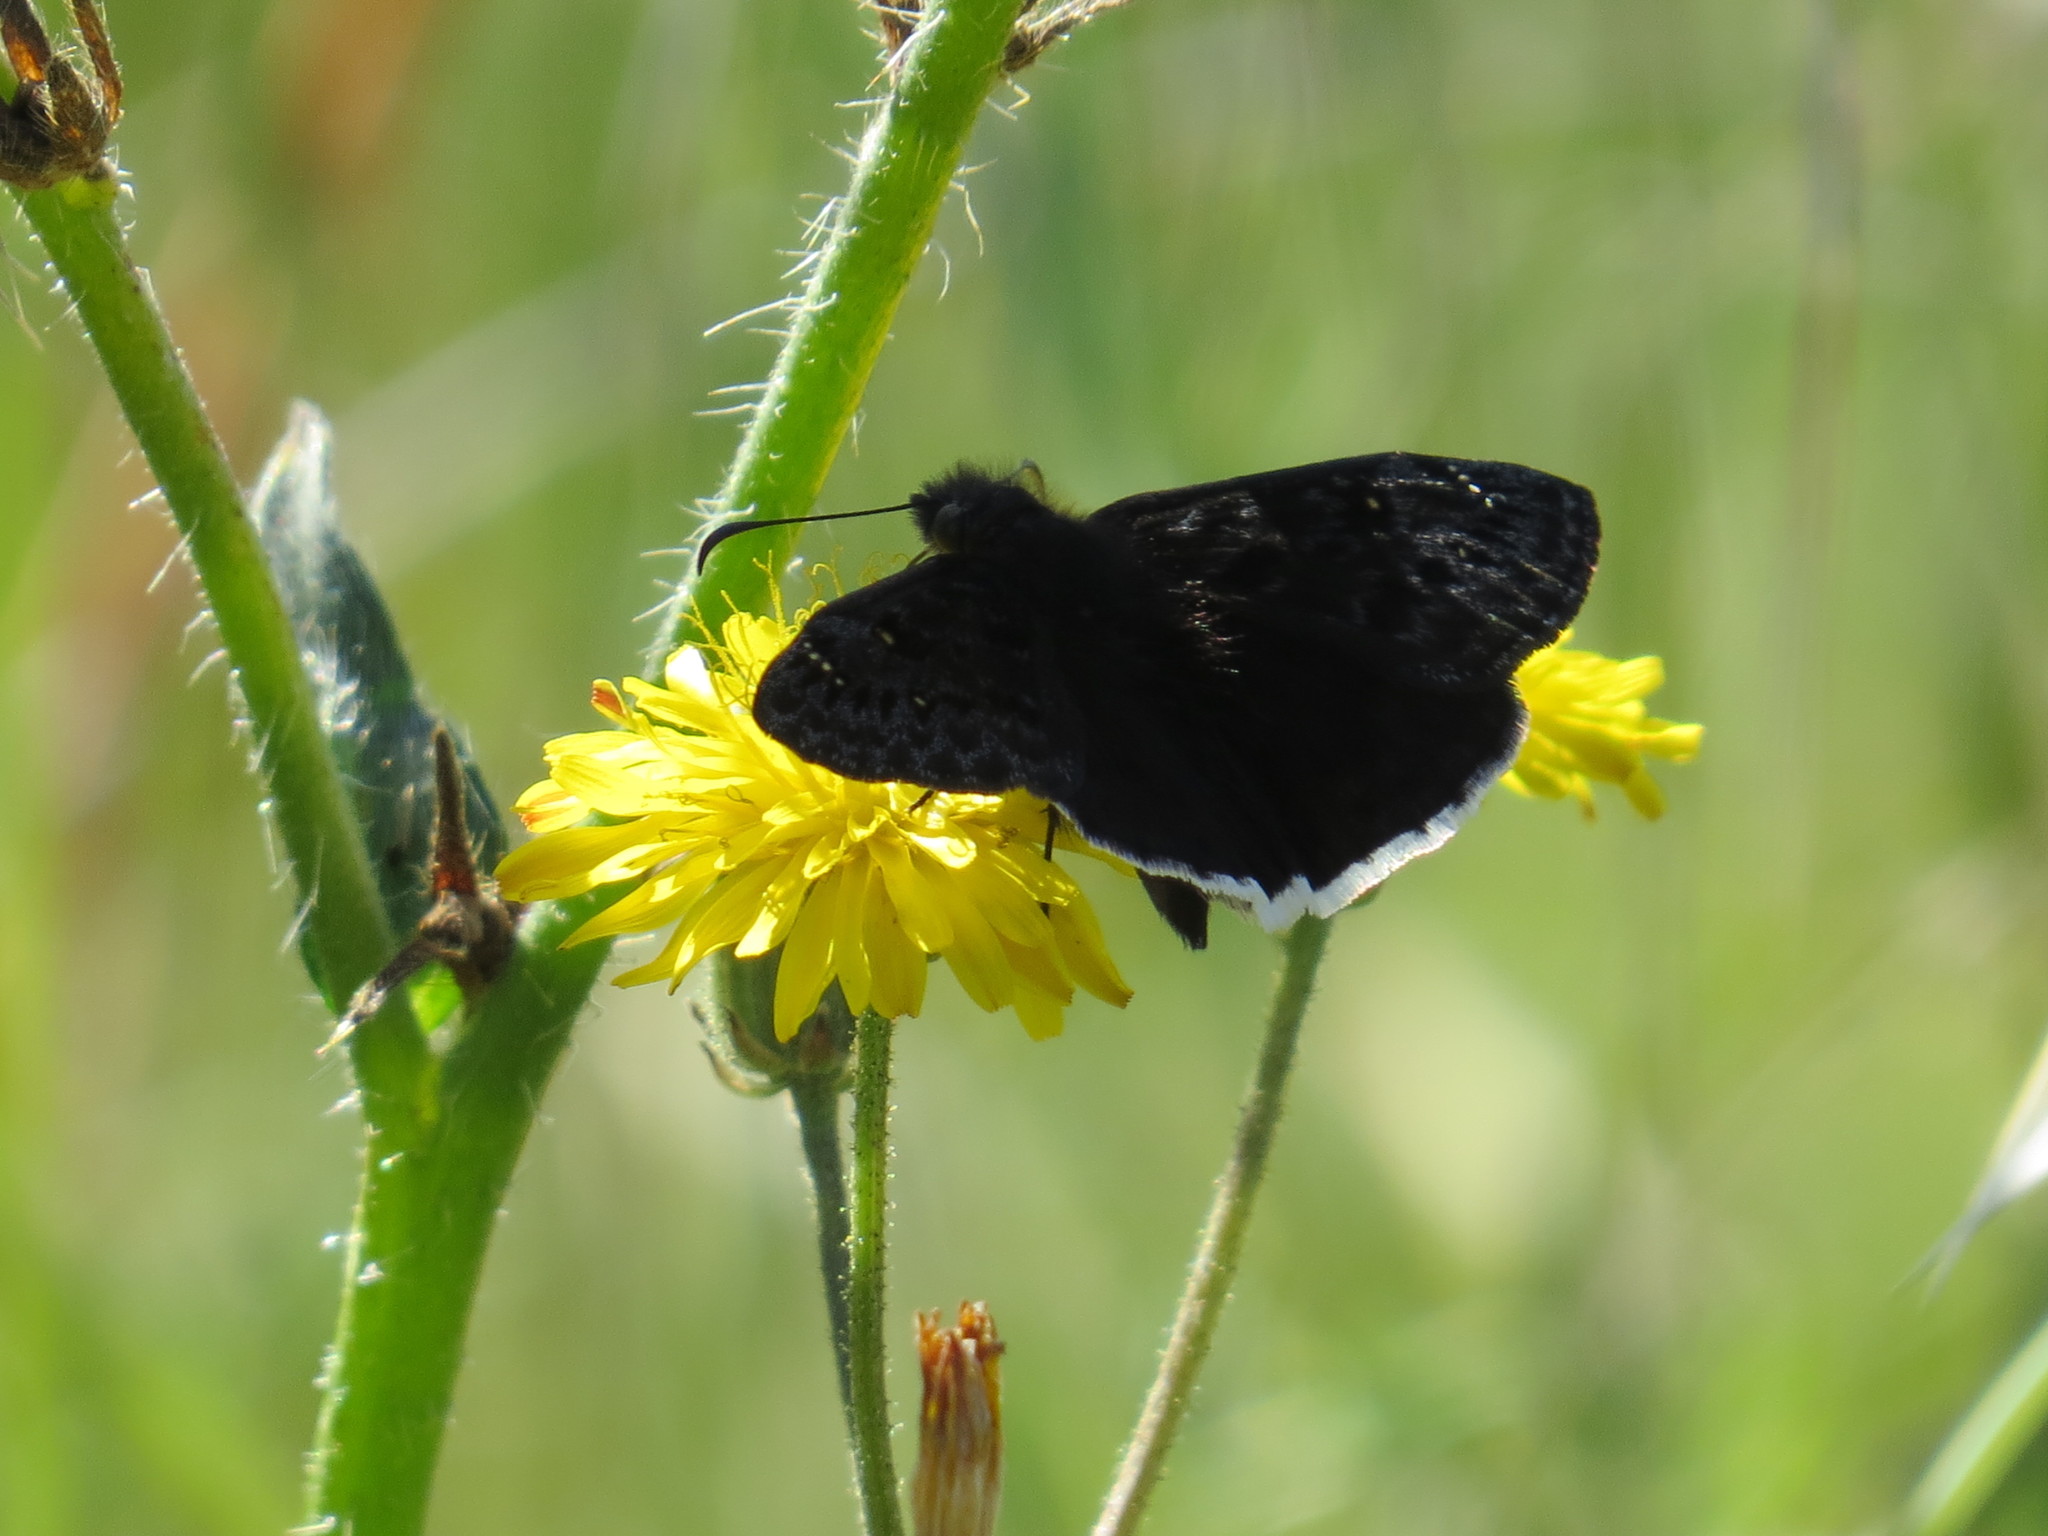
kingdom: Animalia
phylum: Arthropoda
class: Insecta
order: Lepidoptera
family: Hesperiidae
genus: Erynnis
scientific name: Erynnis tristis
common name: Mournful duskywing
